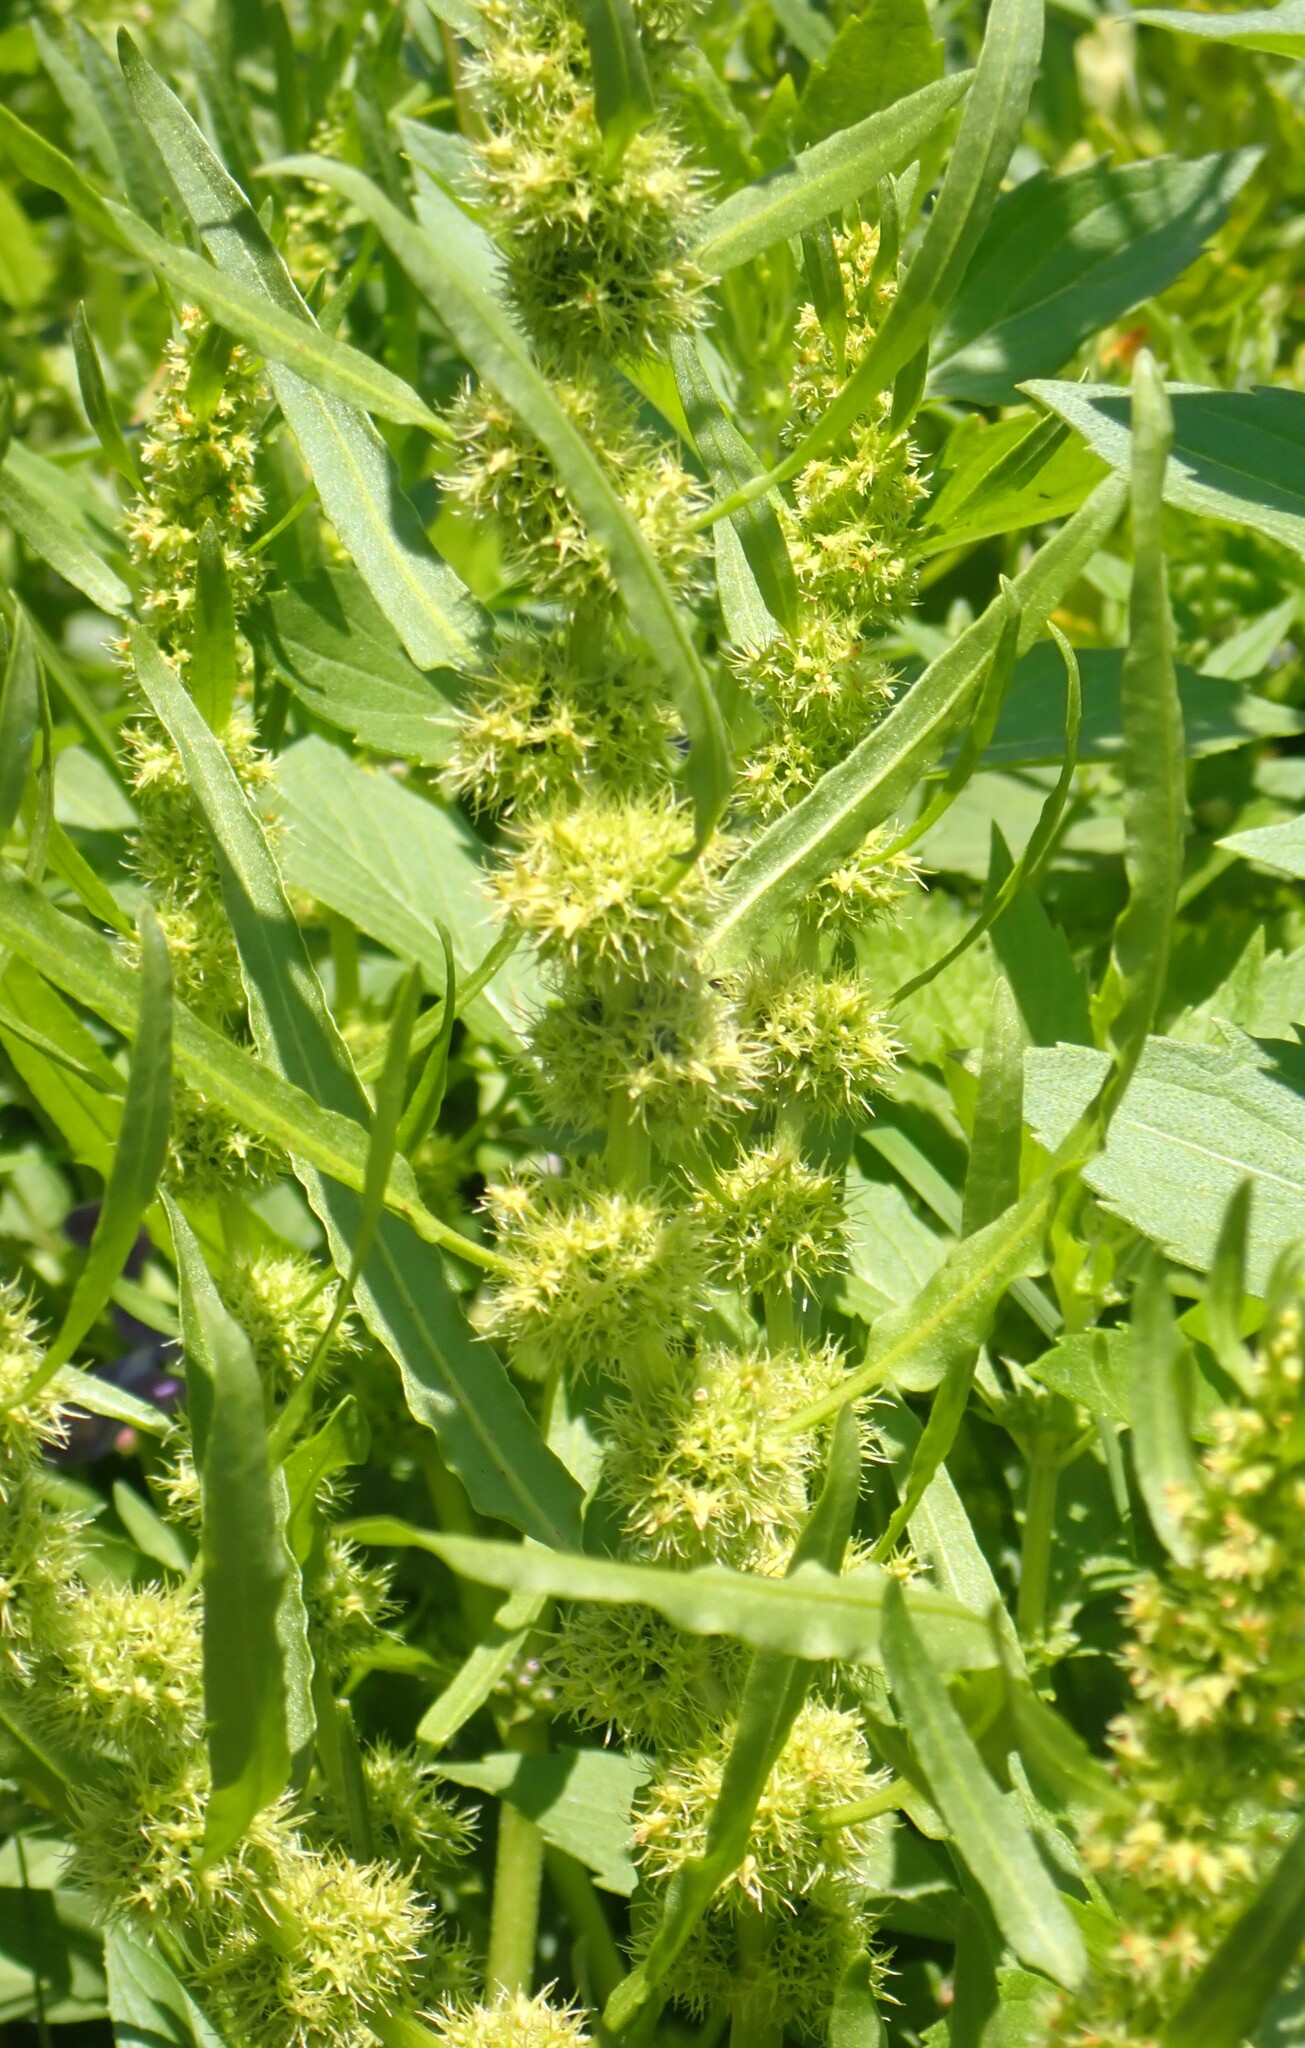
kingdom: Plantae
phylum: Tracheophyta
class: Magnoliopsida
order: Caryophyllales
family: Polygonaceae
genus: Rumex
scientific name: Rumex fueginus
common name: American golden dock
